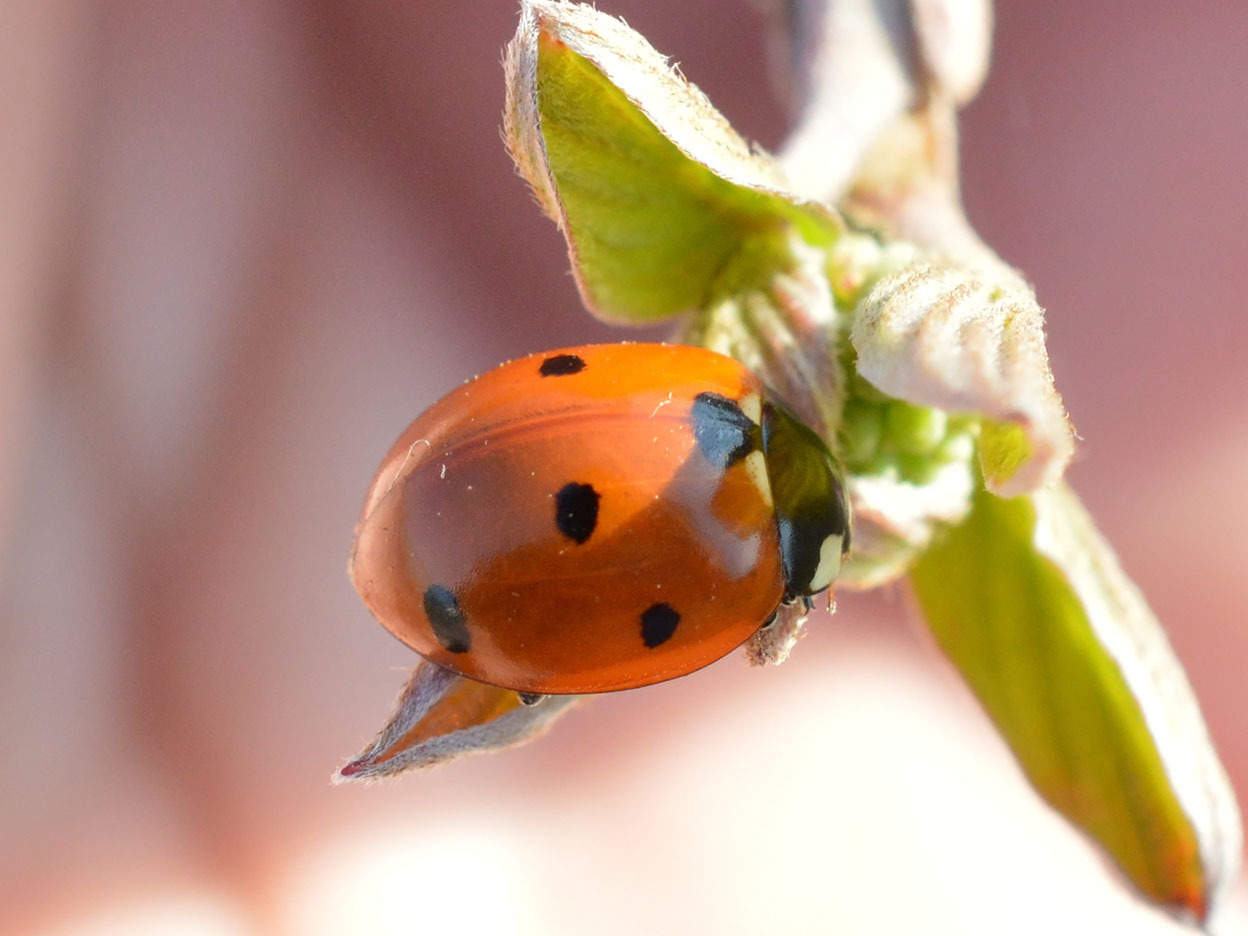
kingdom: Animalia
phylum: Arthropoda
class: Insecta
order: Coleoptera
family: Coccinellidae
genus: Coccinella
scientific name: Coccinella septempunctata
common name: Sevenspotted lady beetle
